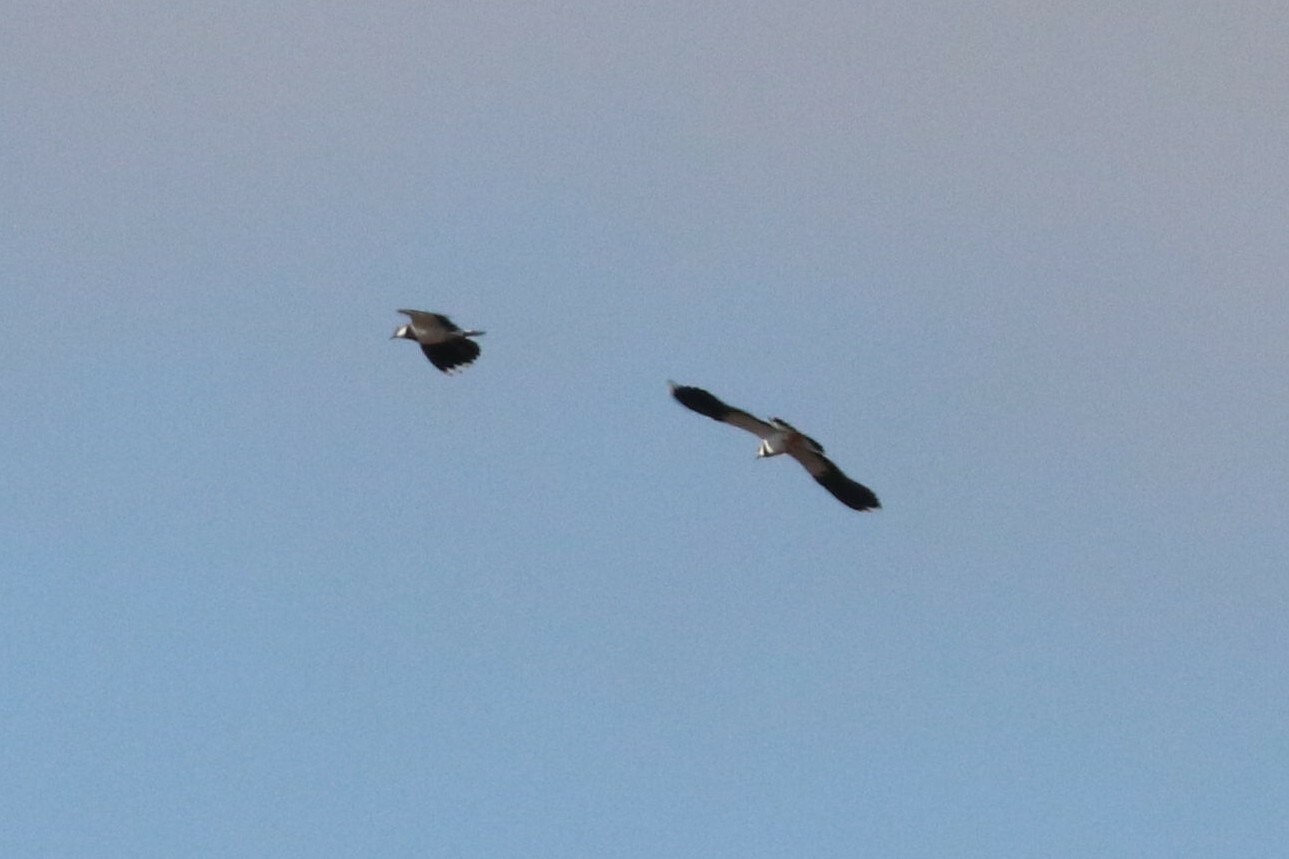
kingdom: Animalia
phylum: Chordata
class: Aves
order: Charadriiformes
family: Charadriidae
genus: Vanellus
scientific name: Vanellus vanellus
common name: Northern lapwing
